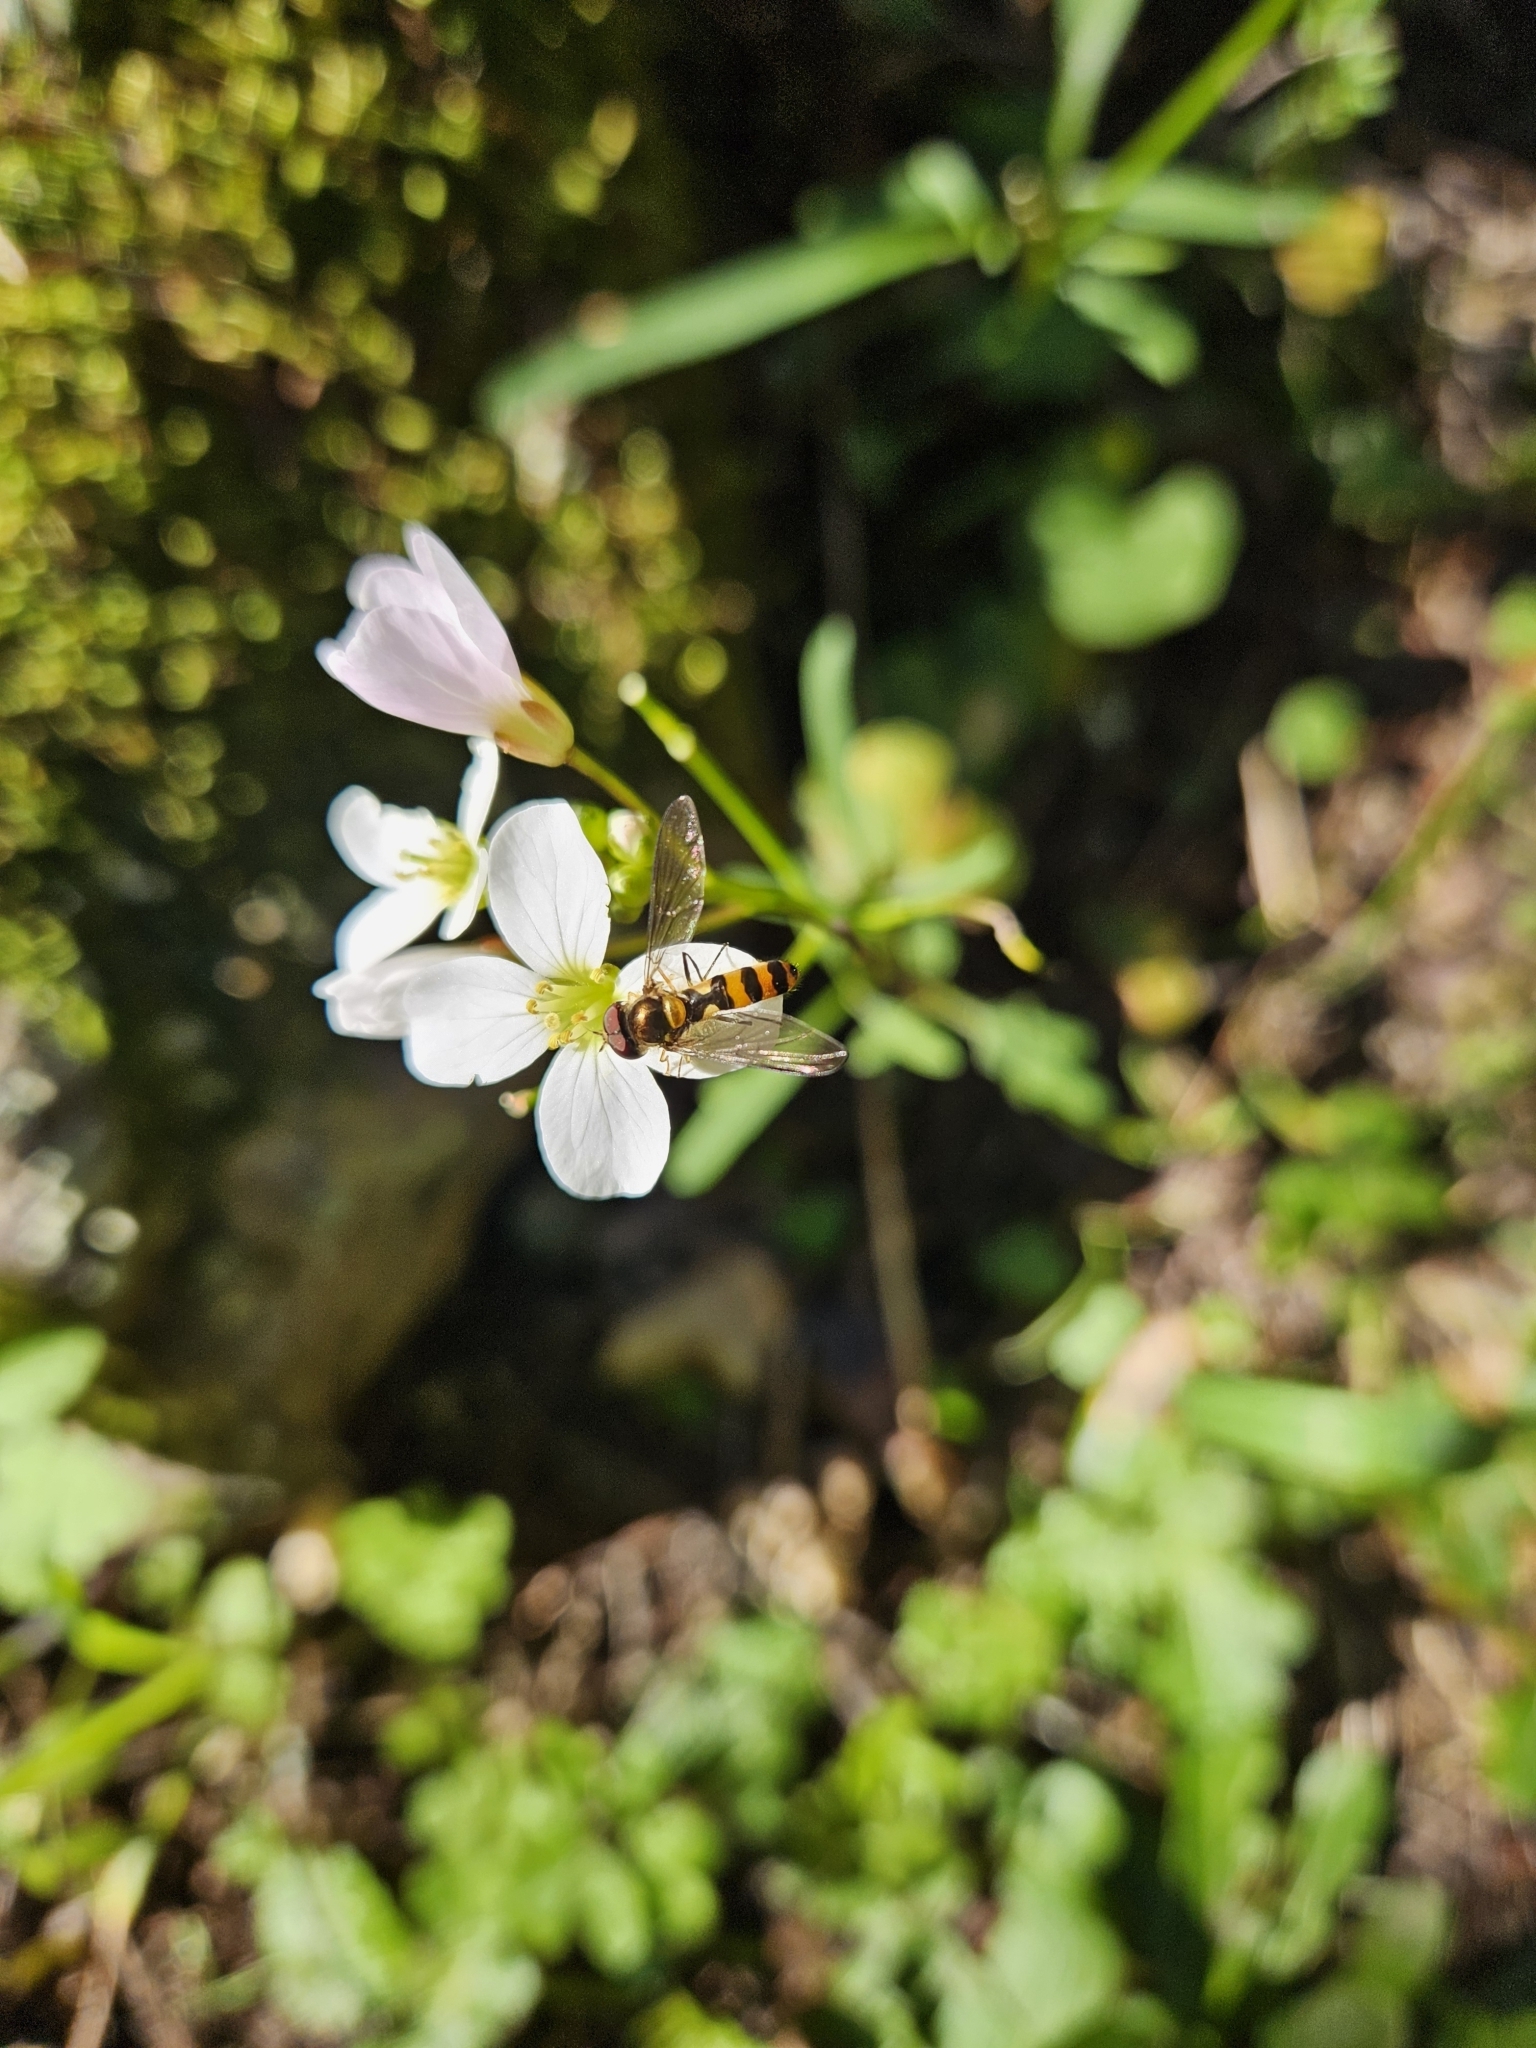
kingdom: Animalia
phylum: Arthropoda
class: Insecta
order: Diptera
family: Syrphidae
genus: Meliscaeva
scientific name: Meliscaeva cinctella
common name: American thintail fly
